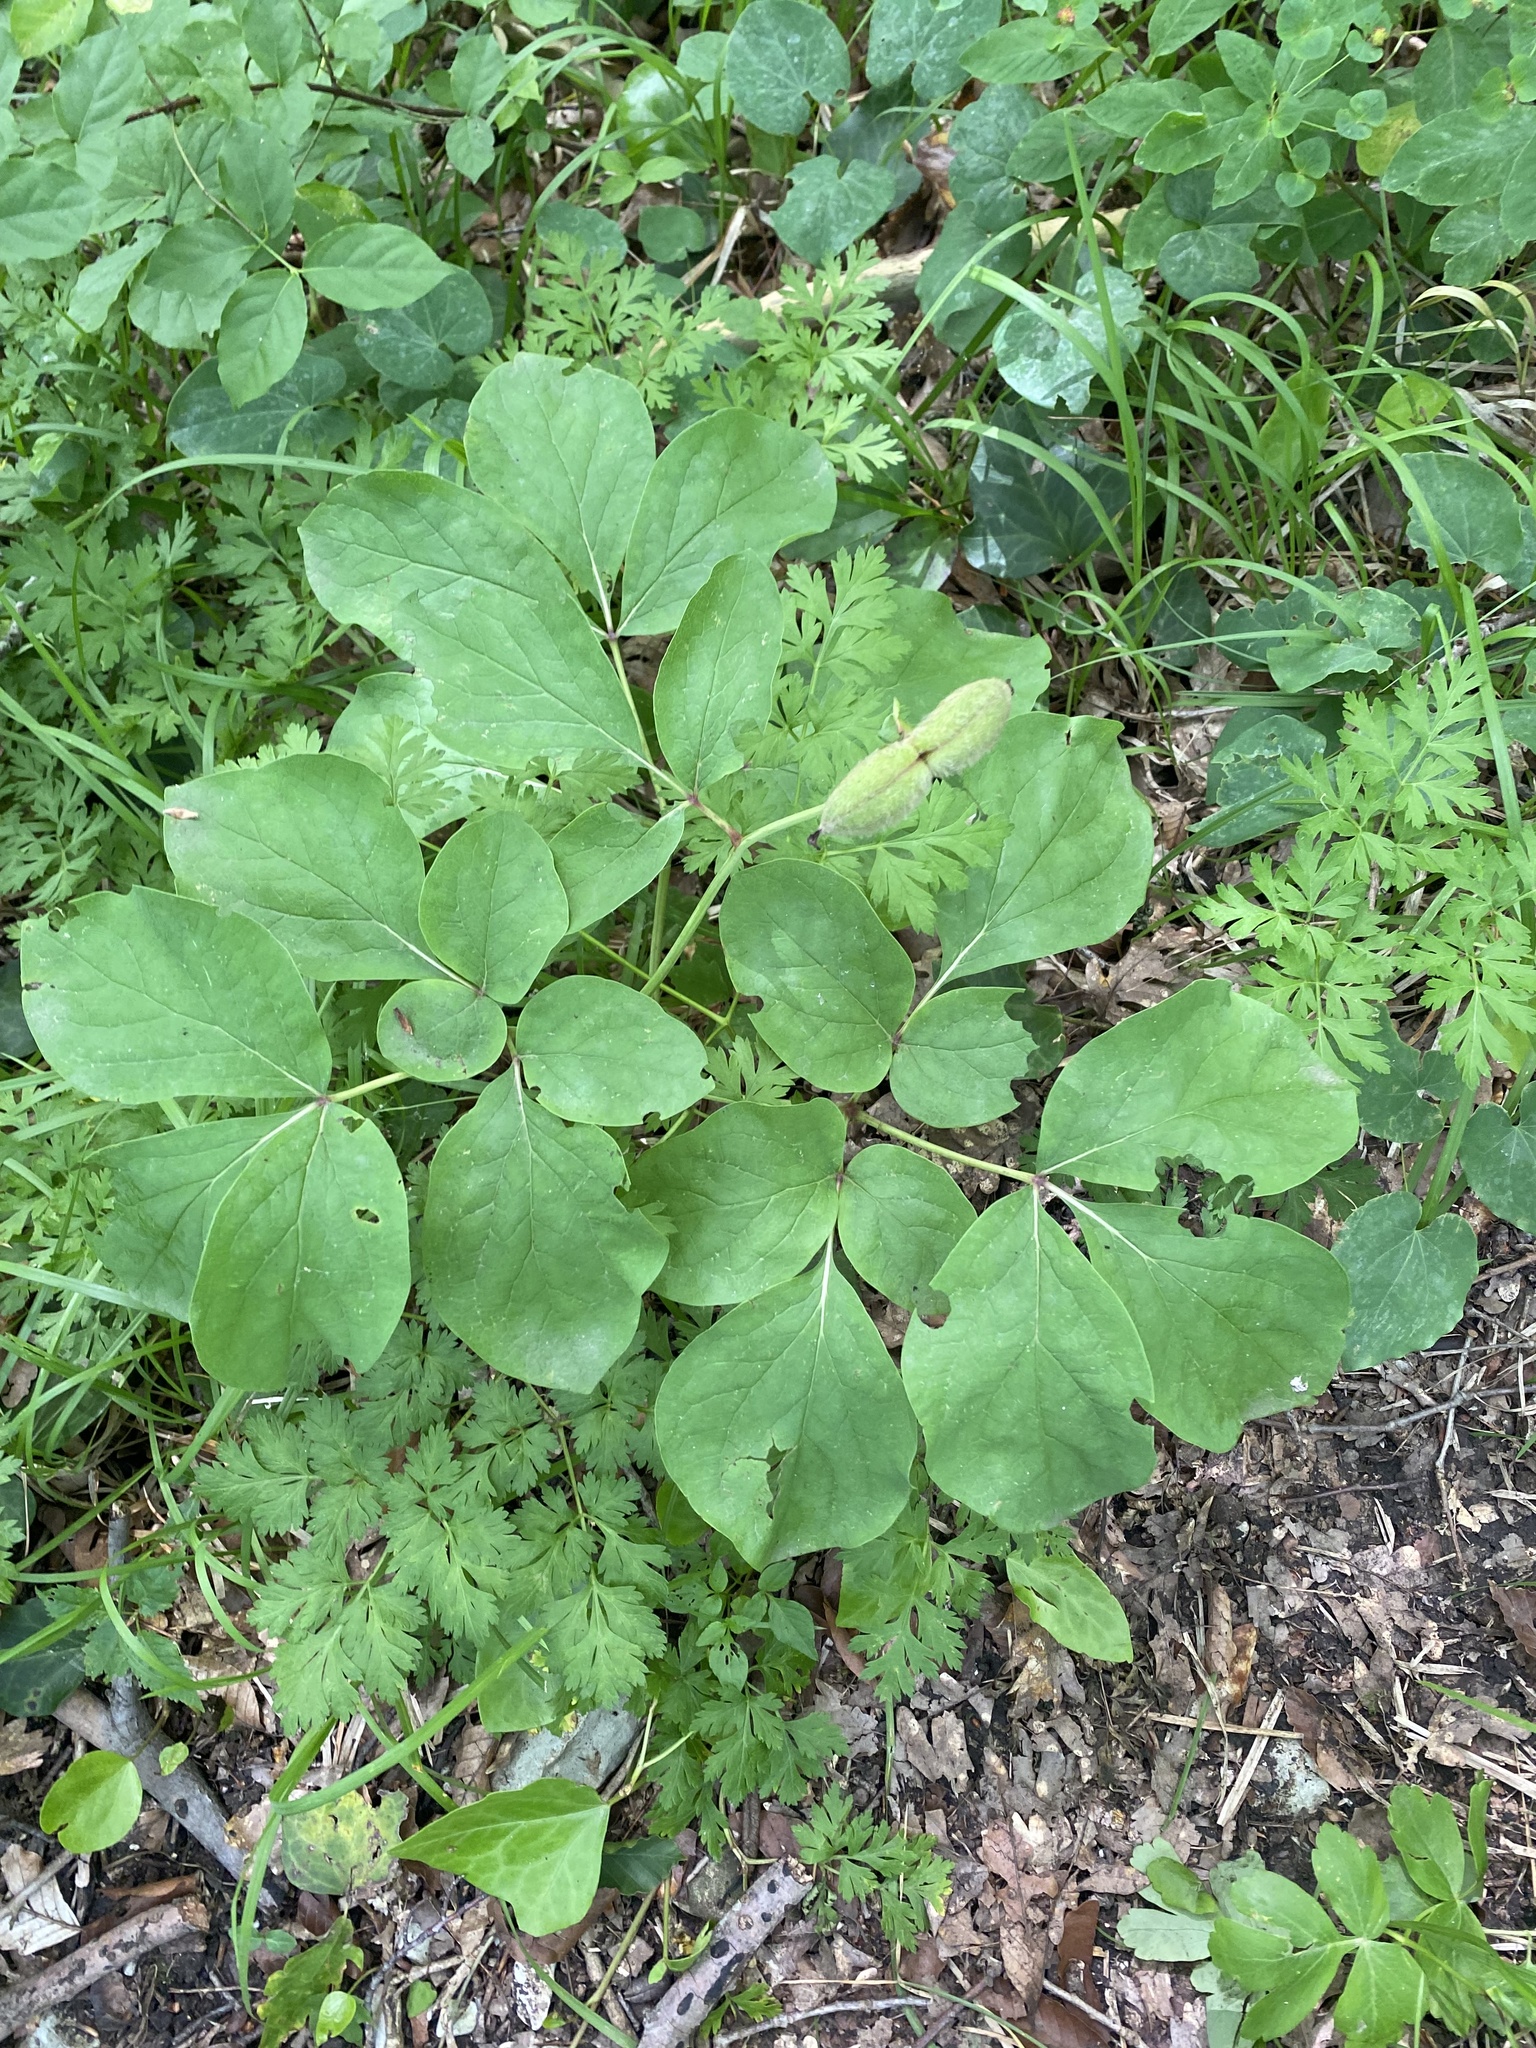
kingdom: Plantae
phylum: Tracheophyta
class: Magnoliopsida
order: Saxifragales
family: Paeoniaceae
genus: Paeonia
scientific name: Paeonia caucasica
